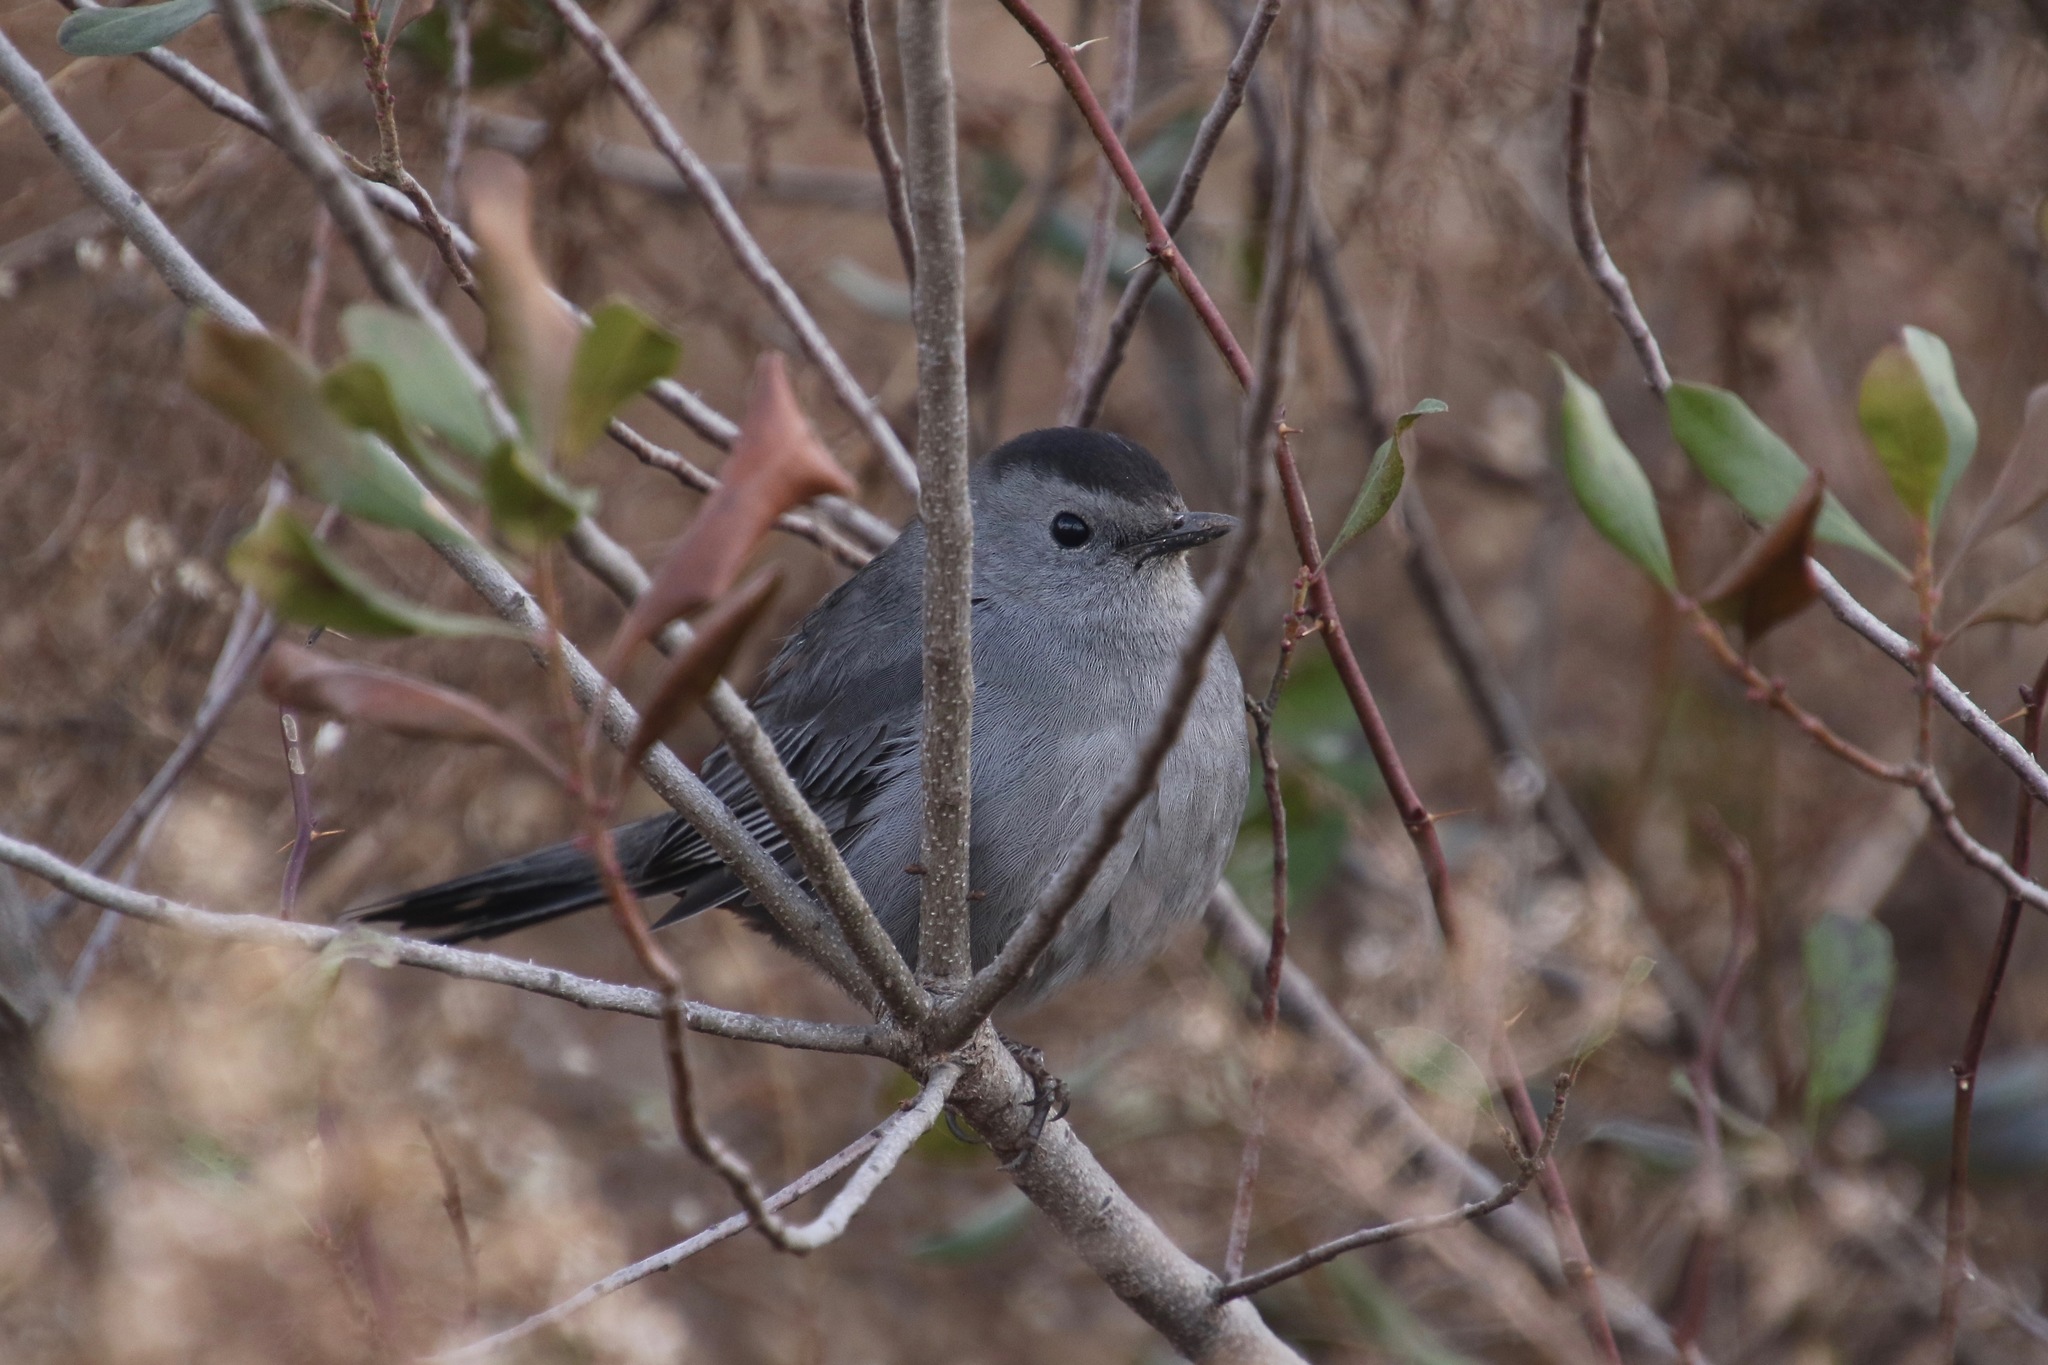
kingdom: Animalia
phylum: Chordata
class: Aves
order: Passeriformes
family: Mimidae
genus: Dumetella
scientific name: Dumetella carolinensis
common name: Gray catbird
